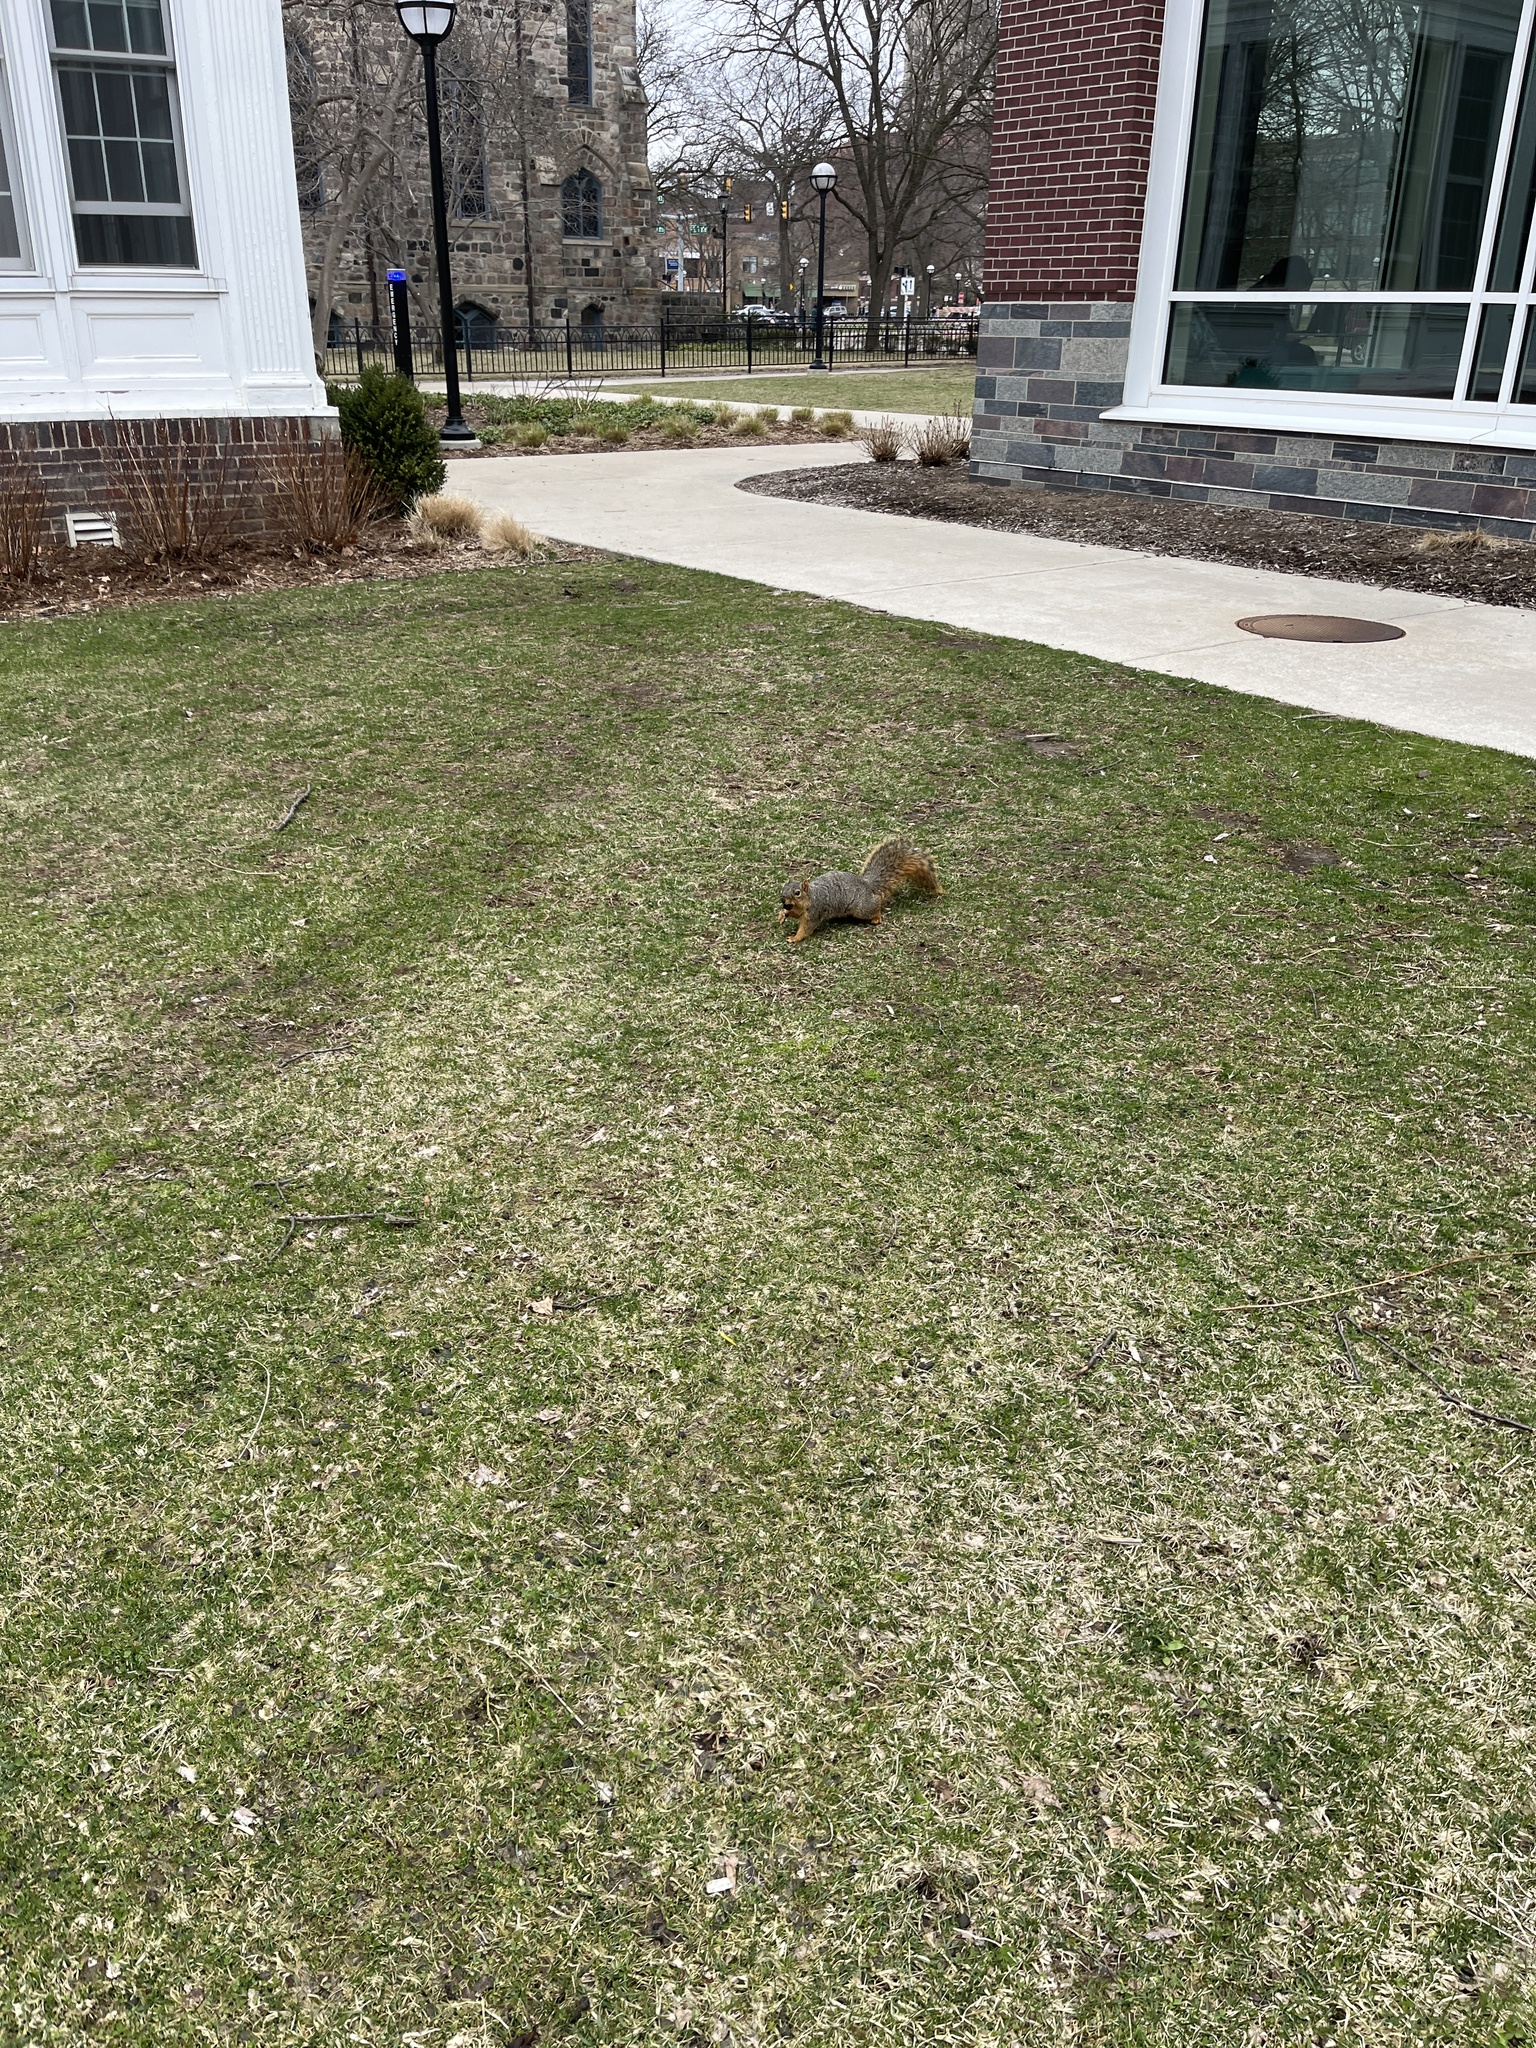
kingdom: Animalia
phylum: Chordata
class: Mammalia
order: Rodentia
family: Sciuridae
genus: Sciurus
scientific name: Sciurus niger
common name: Fox squirrel
